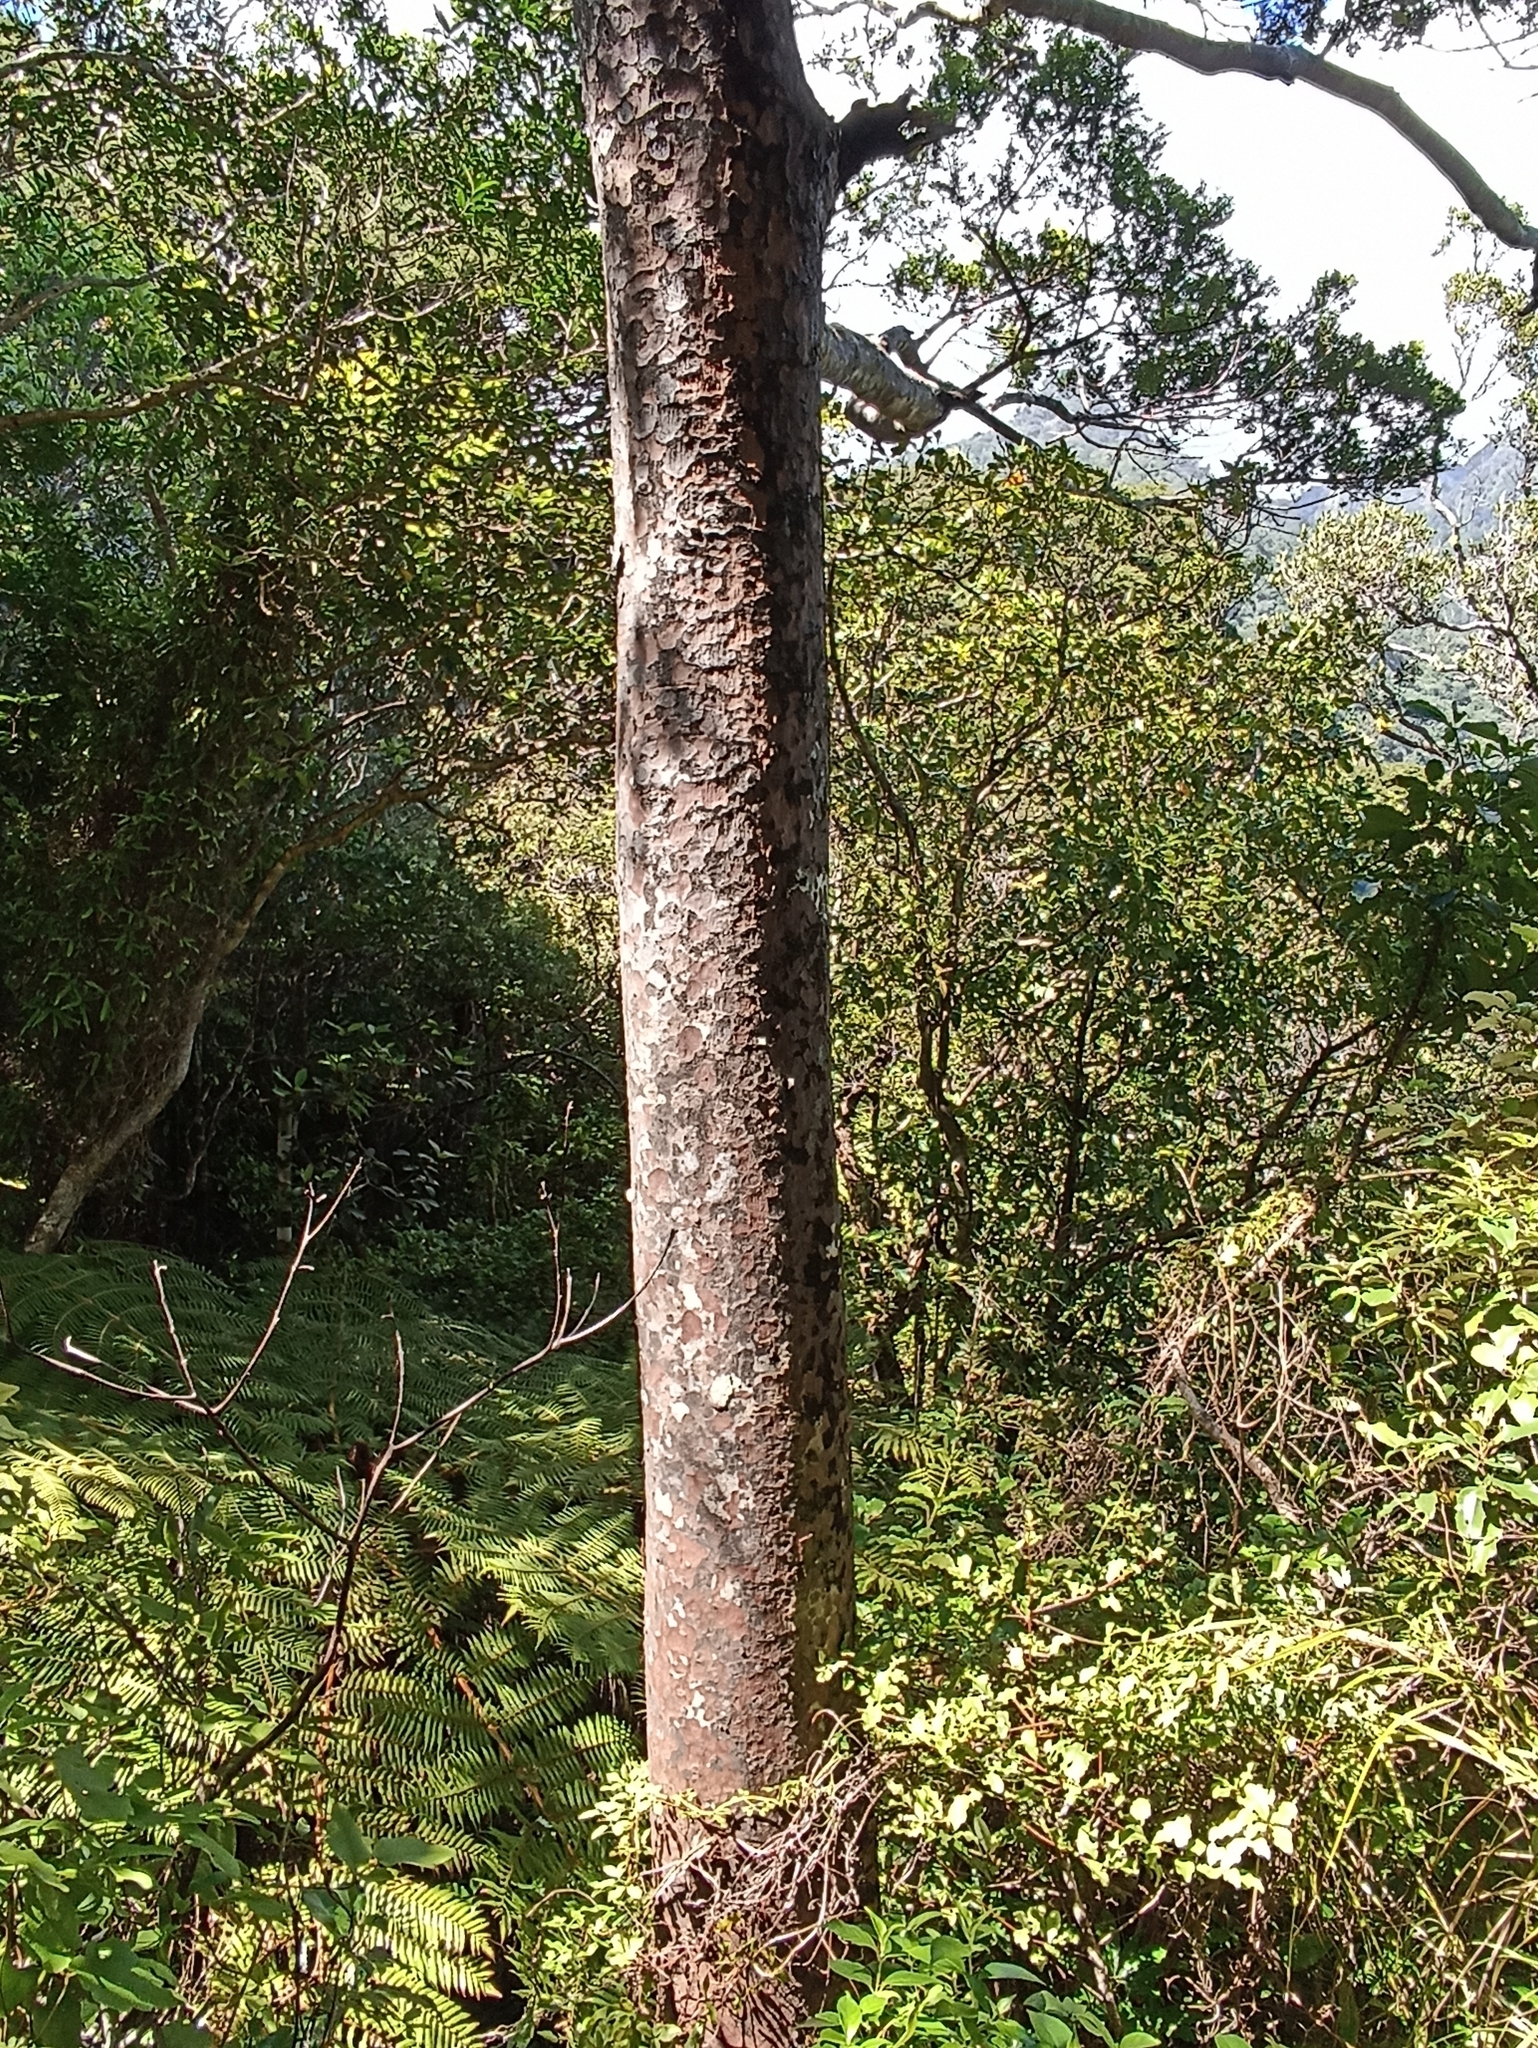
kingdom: Plantae
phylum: Tracheophyta
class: Pinopsida
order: Pinales
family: Podocarpaceae
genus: Prumnopitys
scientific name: Prumnopitys taxifolia
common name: Matai
